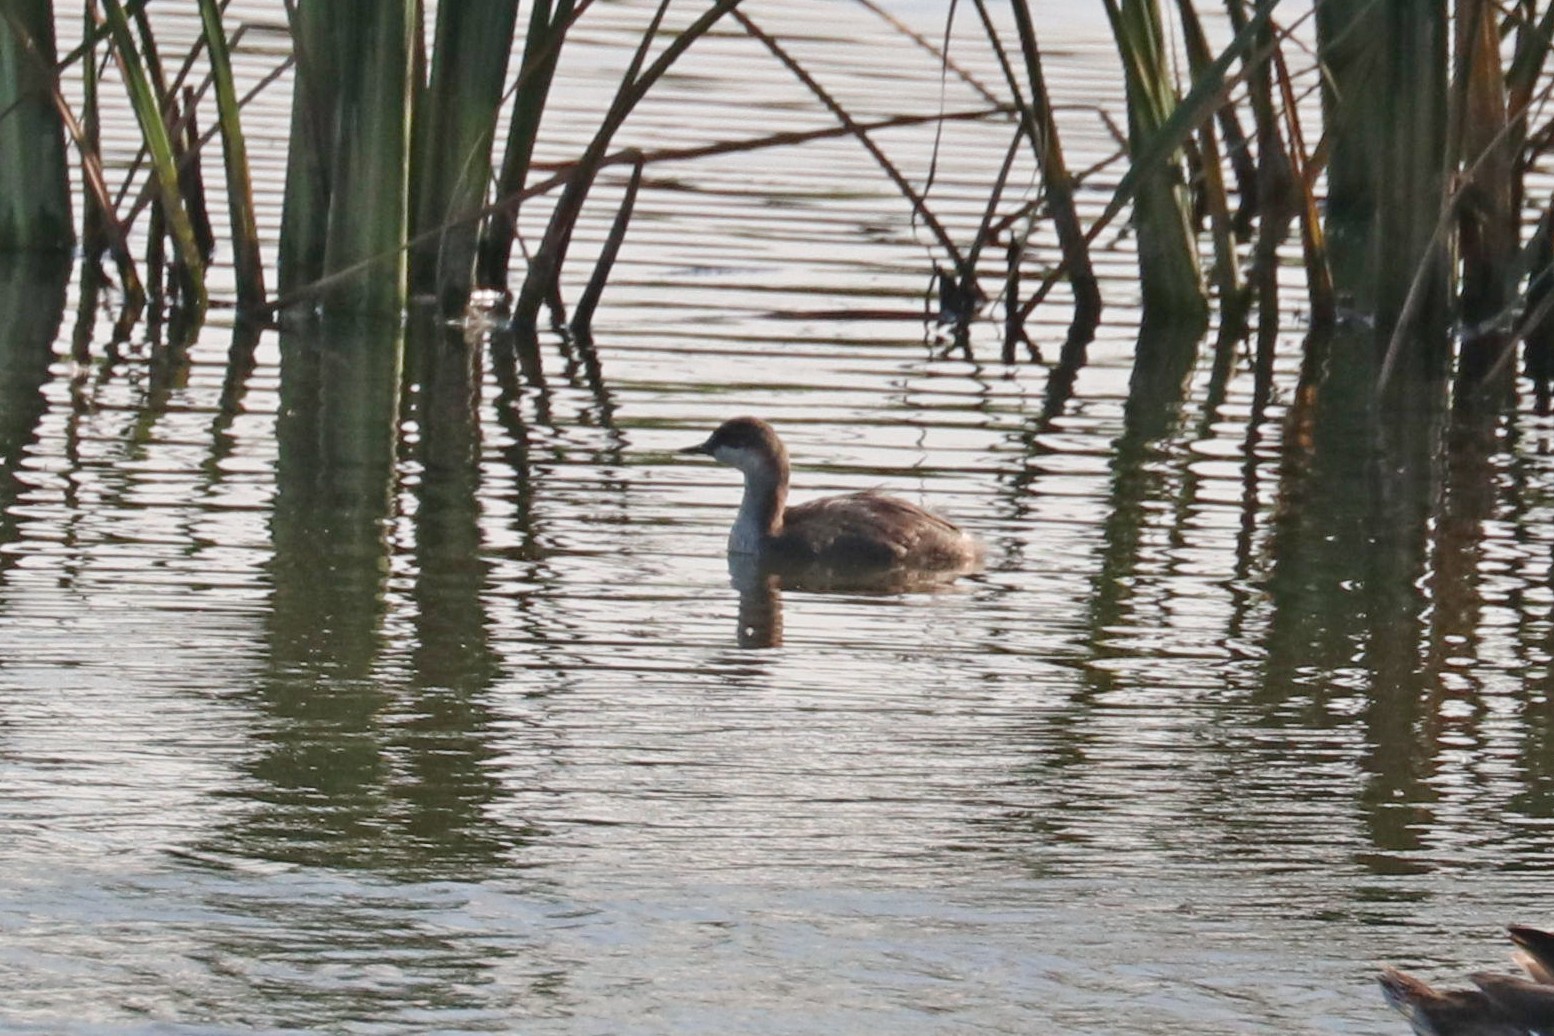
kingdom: Animalia
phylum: Chordata
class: Aves
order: Podicipediformes
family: Podicipedidae
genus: Podiceps
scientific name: Podiceps nigricollis
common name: Black-necked grebe
